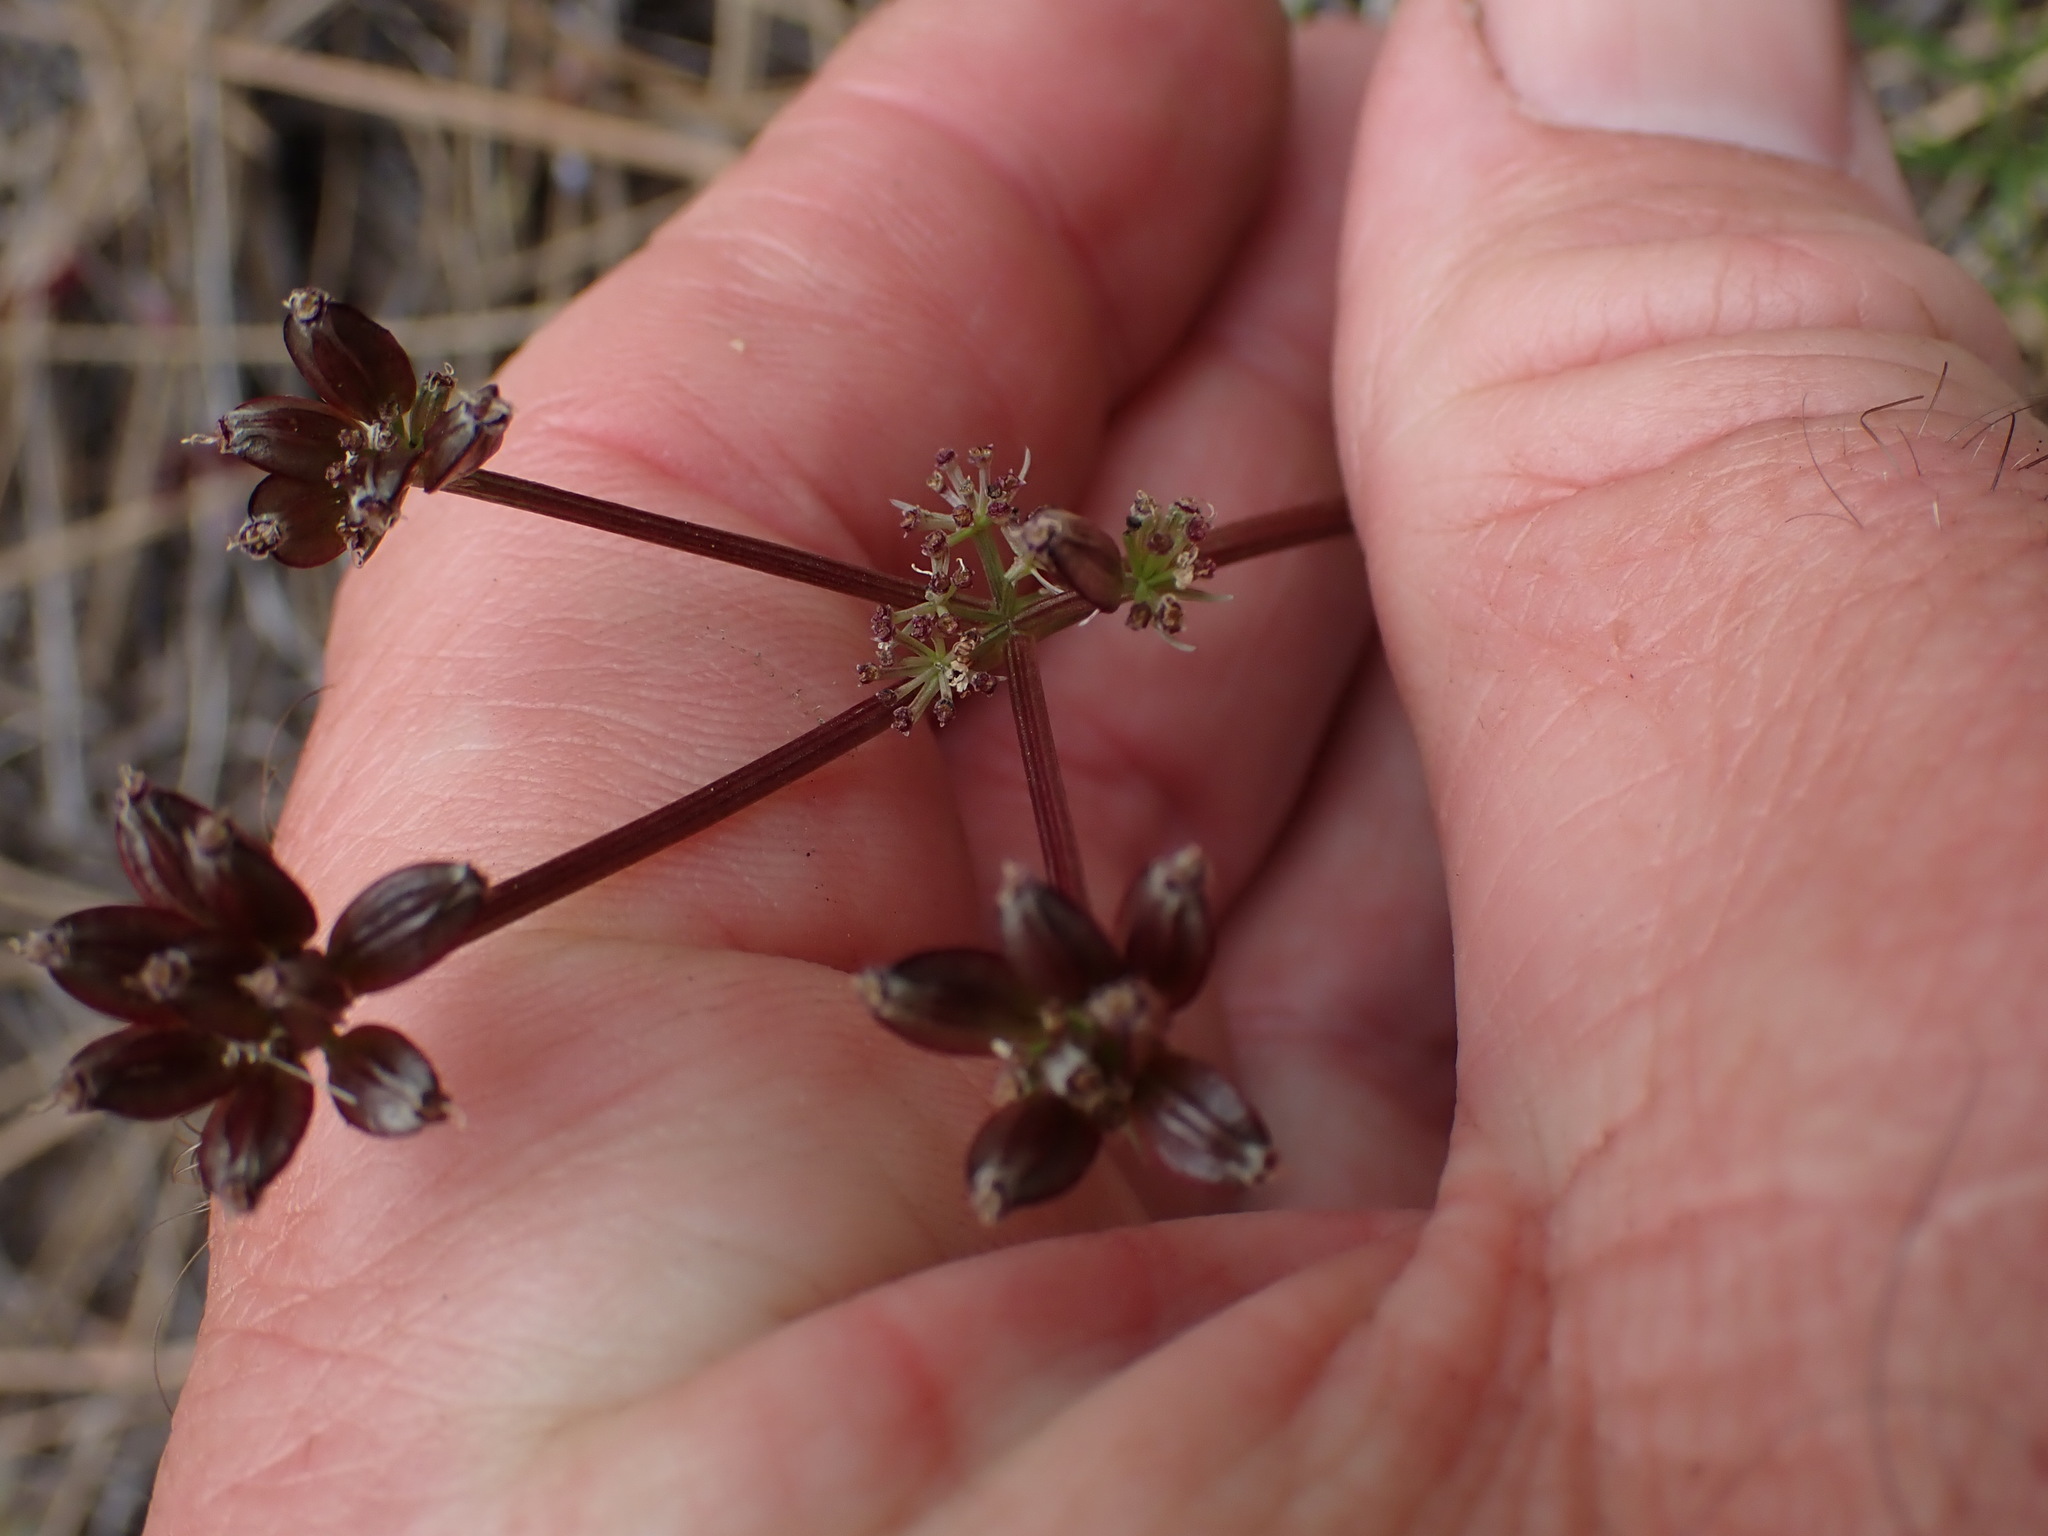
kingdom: Plantae
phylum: Tracheophyta
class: Magnoliopsida
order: Apiales
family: Apiaceae
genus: Lomatium
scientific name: Lomatium geyeri
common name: Geyer's biscuitroot
